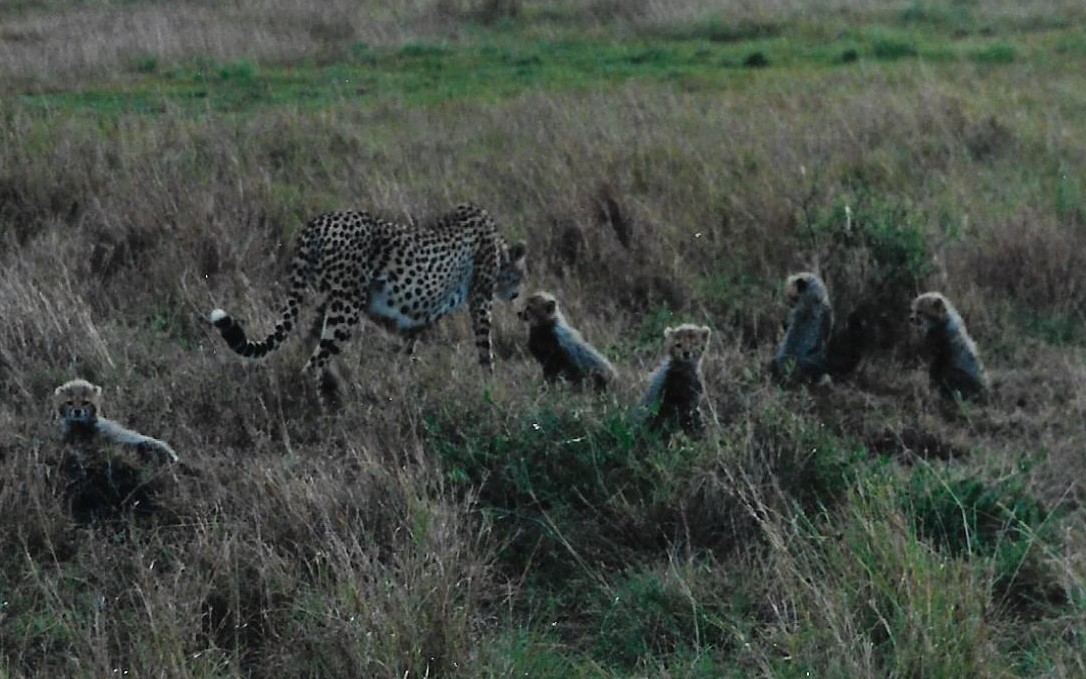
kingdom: Animalia
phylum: Chordata
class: Mammalia
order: Carnivora
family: Felidae
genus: Acinonyx
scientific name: Acinonyx jubatus
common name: Cheetah
